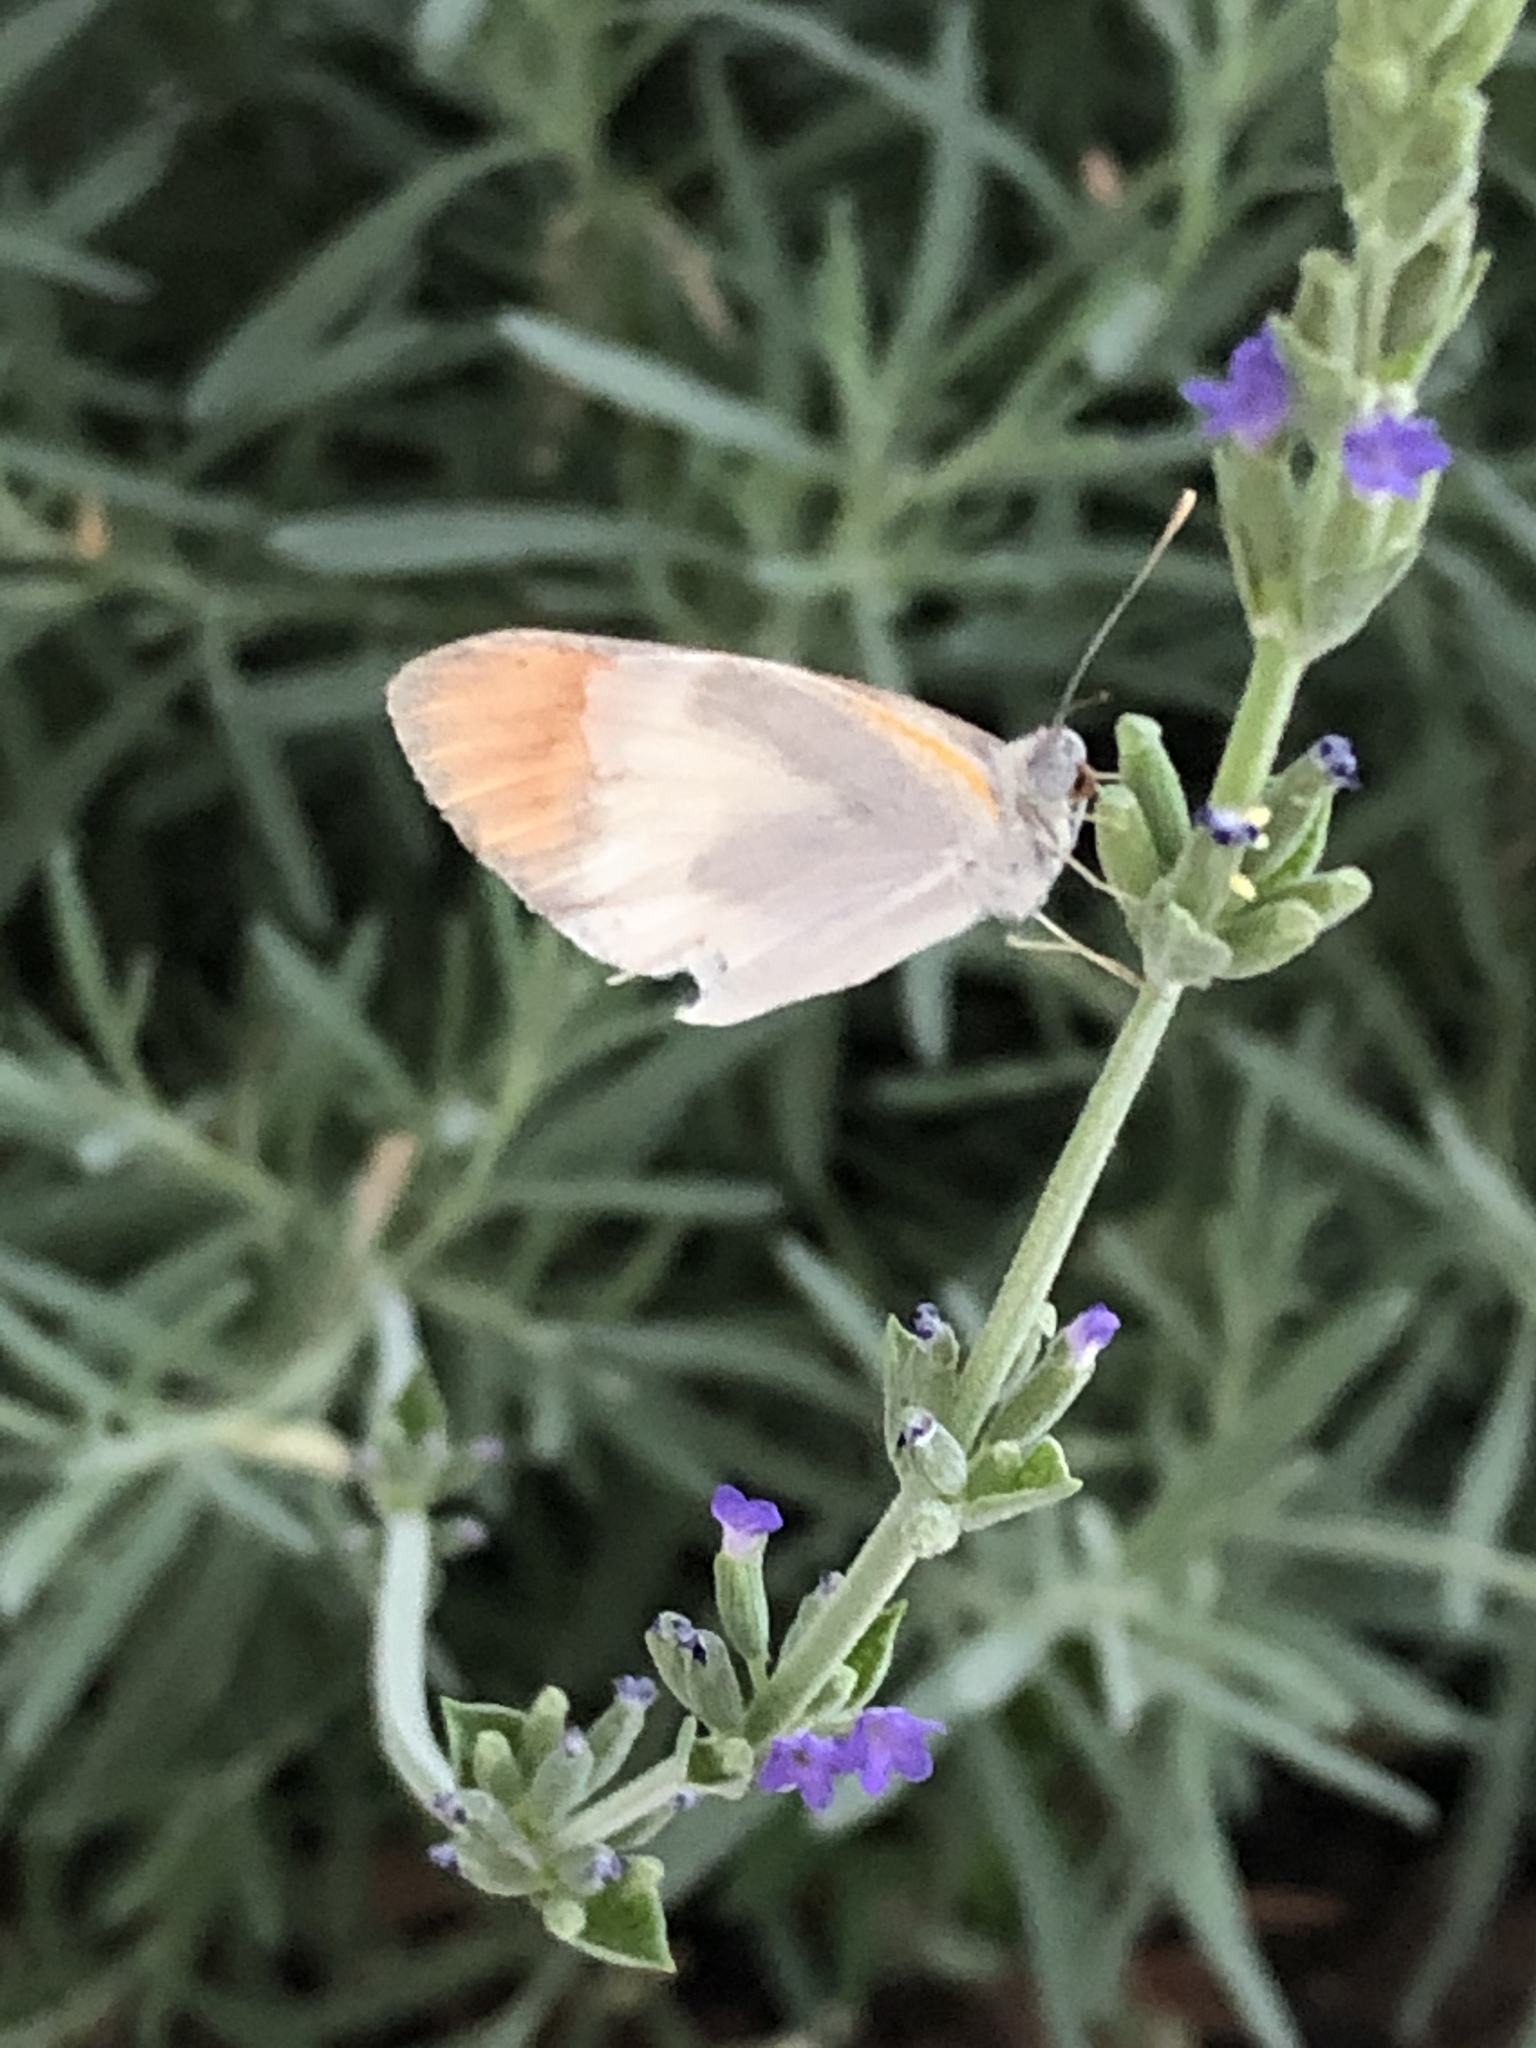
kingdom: Animalia
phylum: Arthropoda
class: Insecta
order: Lepidoptera
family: Pieridae
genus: Colotis
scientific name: Colotis evenina
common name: Common orange tip
